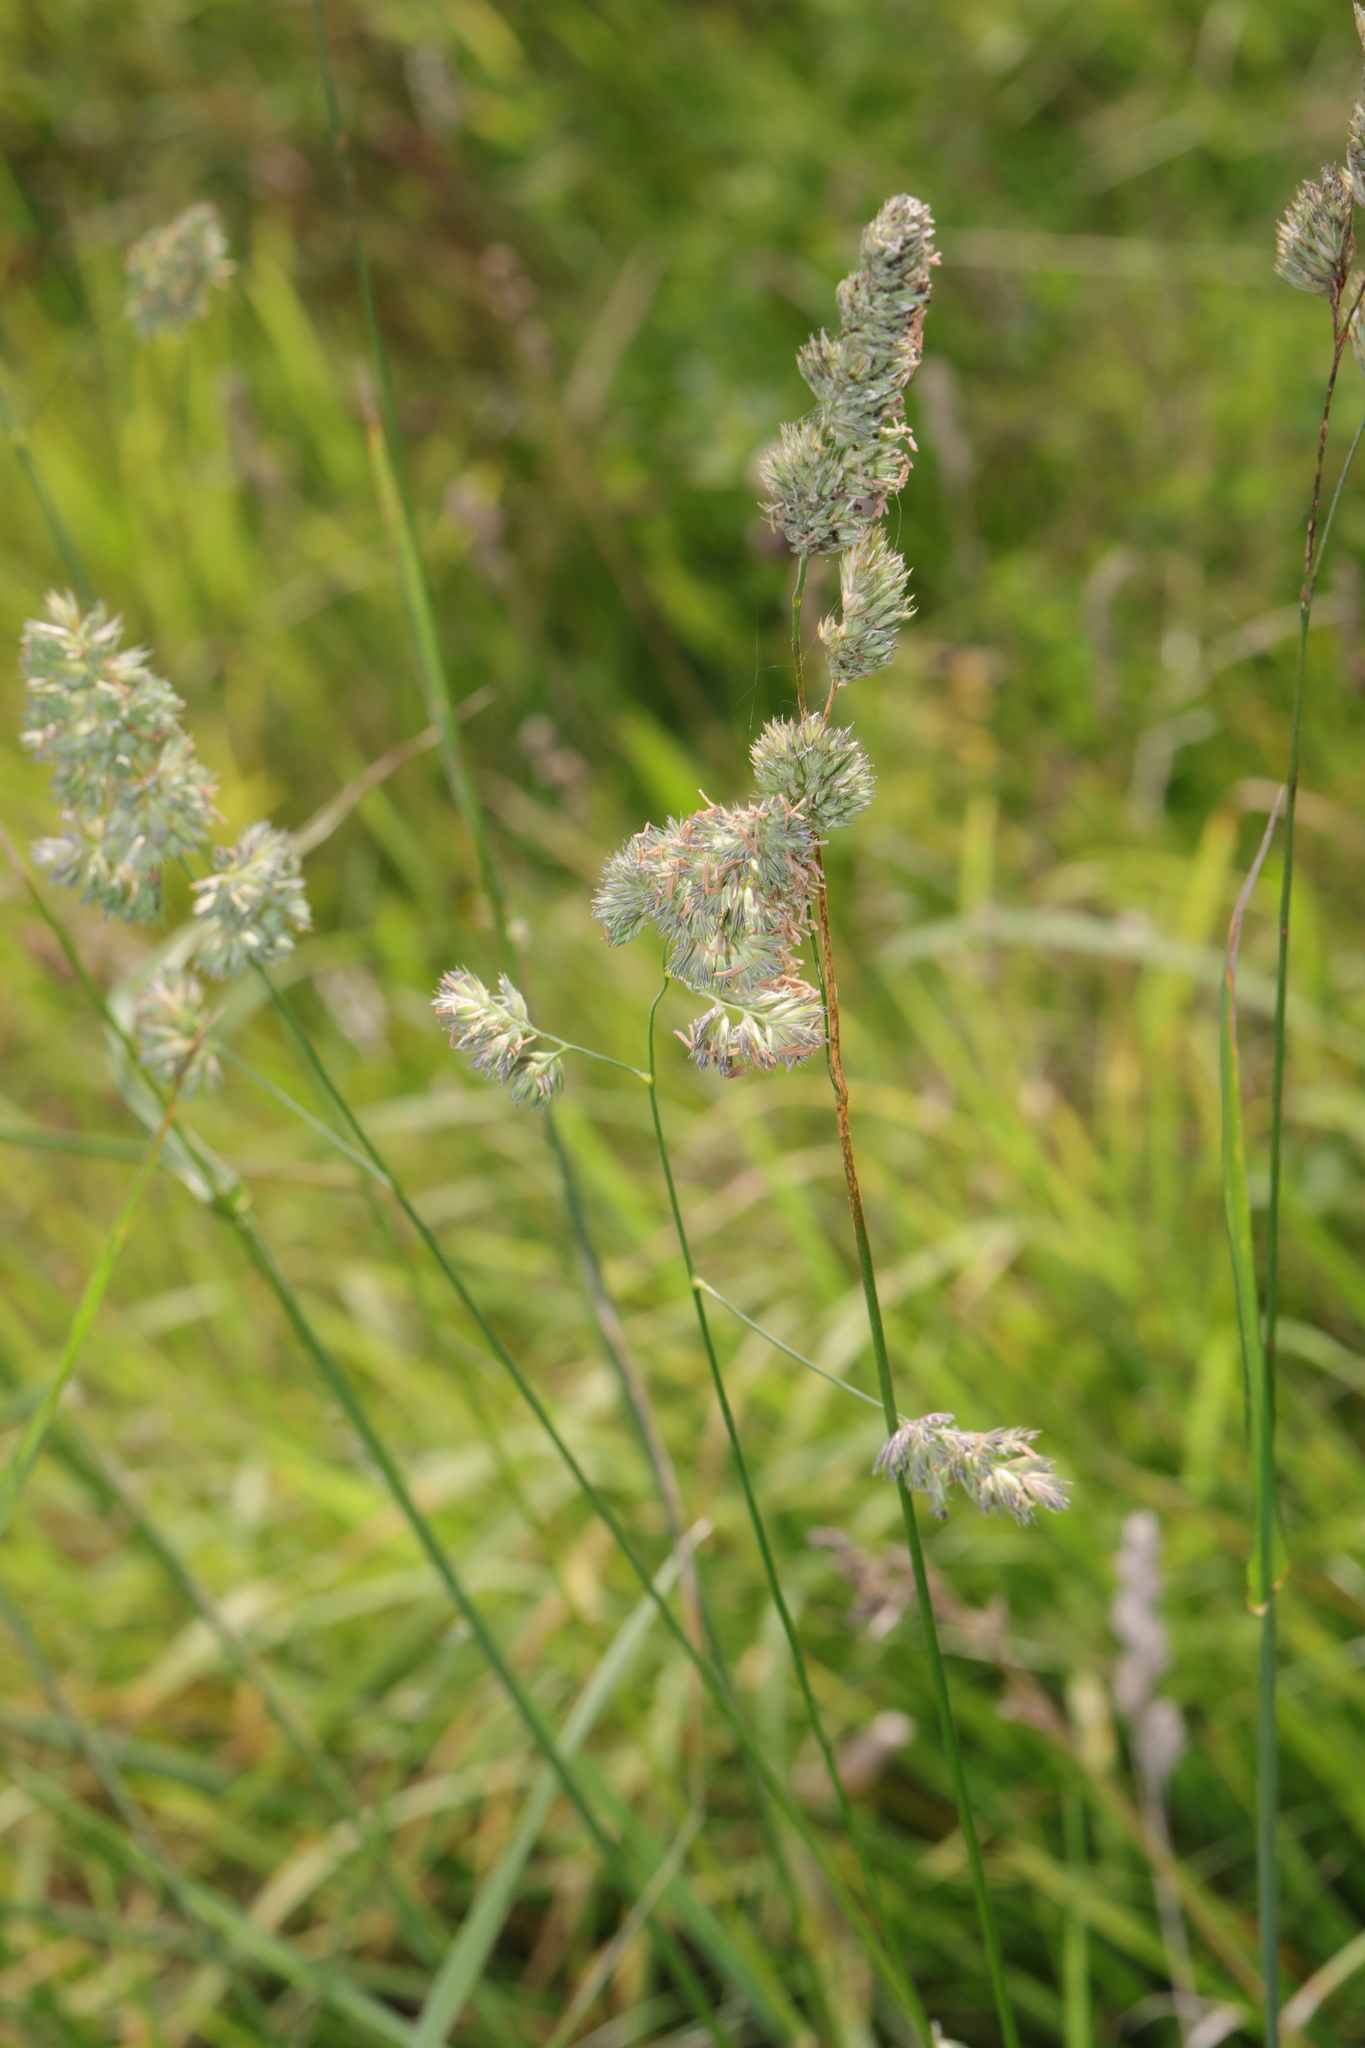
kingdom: Plantae
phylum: Tracheophyta
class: Liliopsida
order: Poales
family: Poaceae
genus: Dactylis
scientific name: Dactylis glomerata
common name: Orchardgrass
